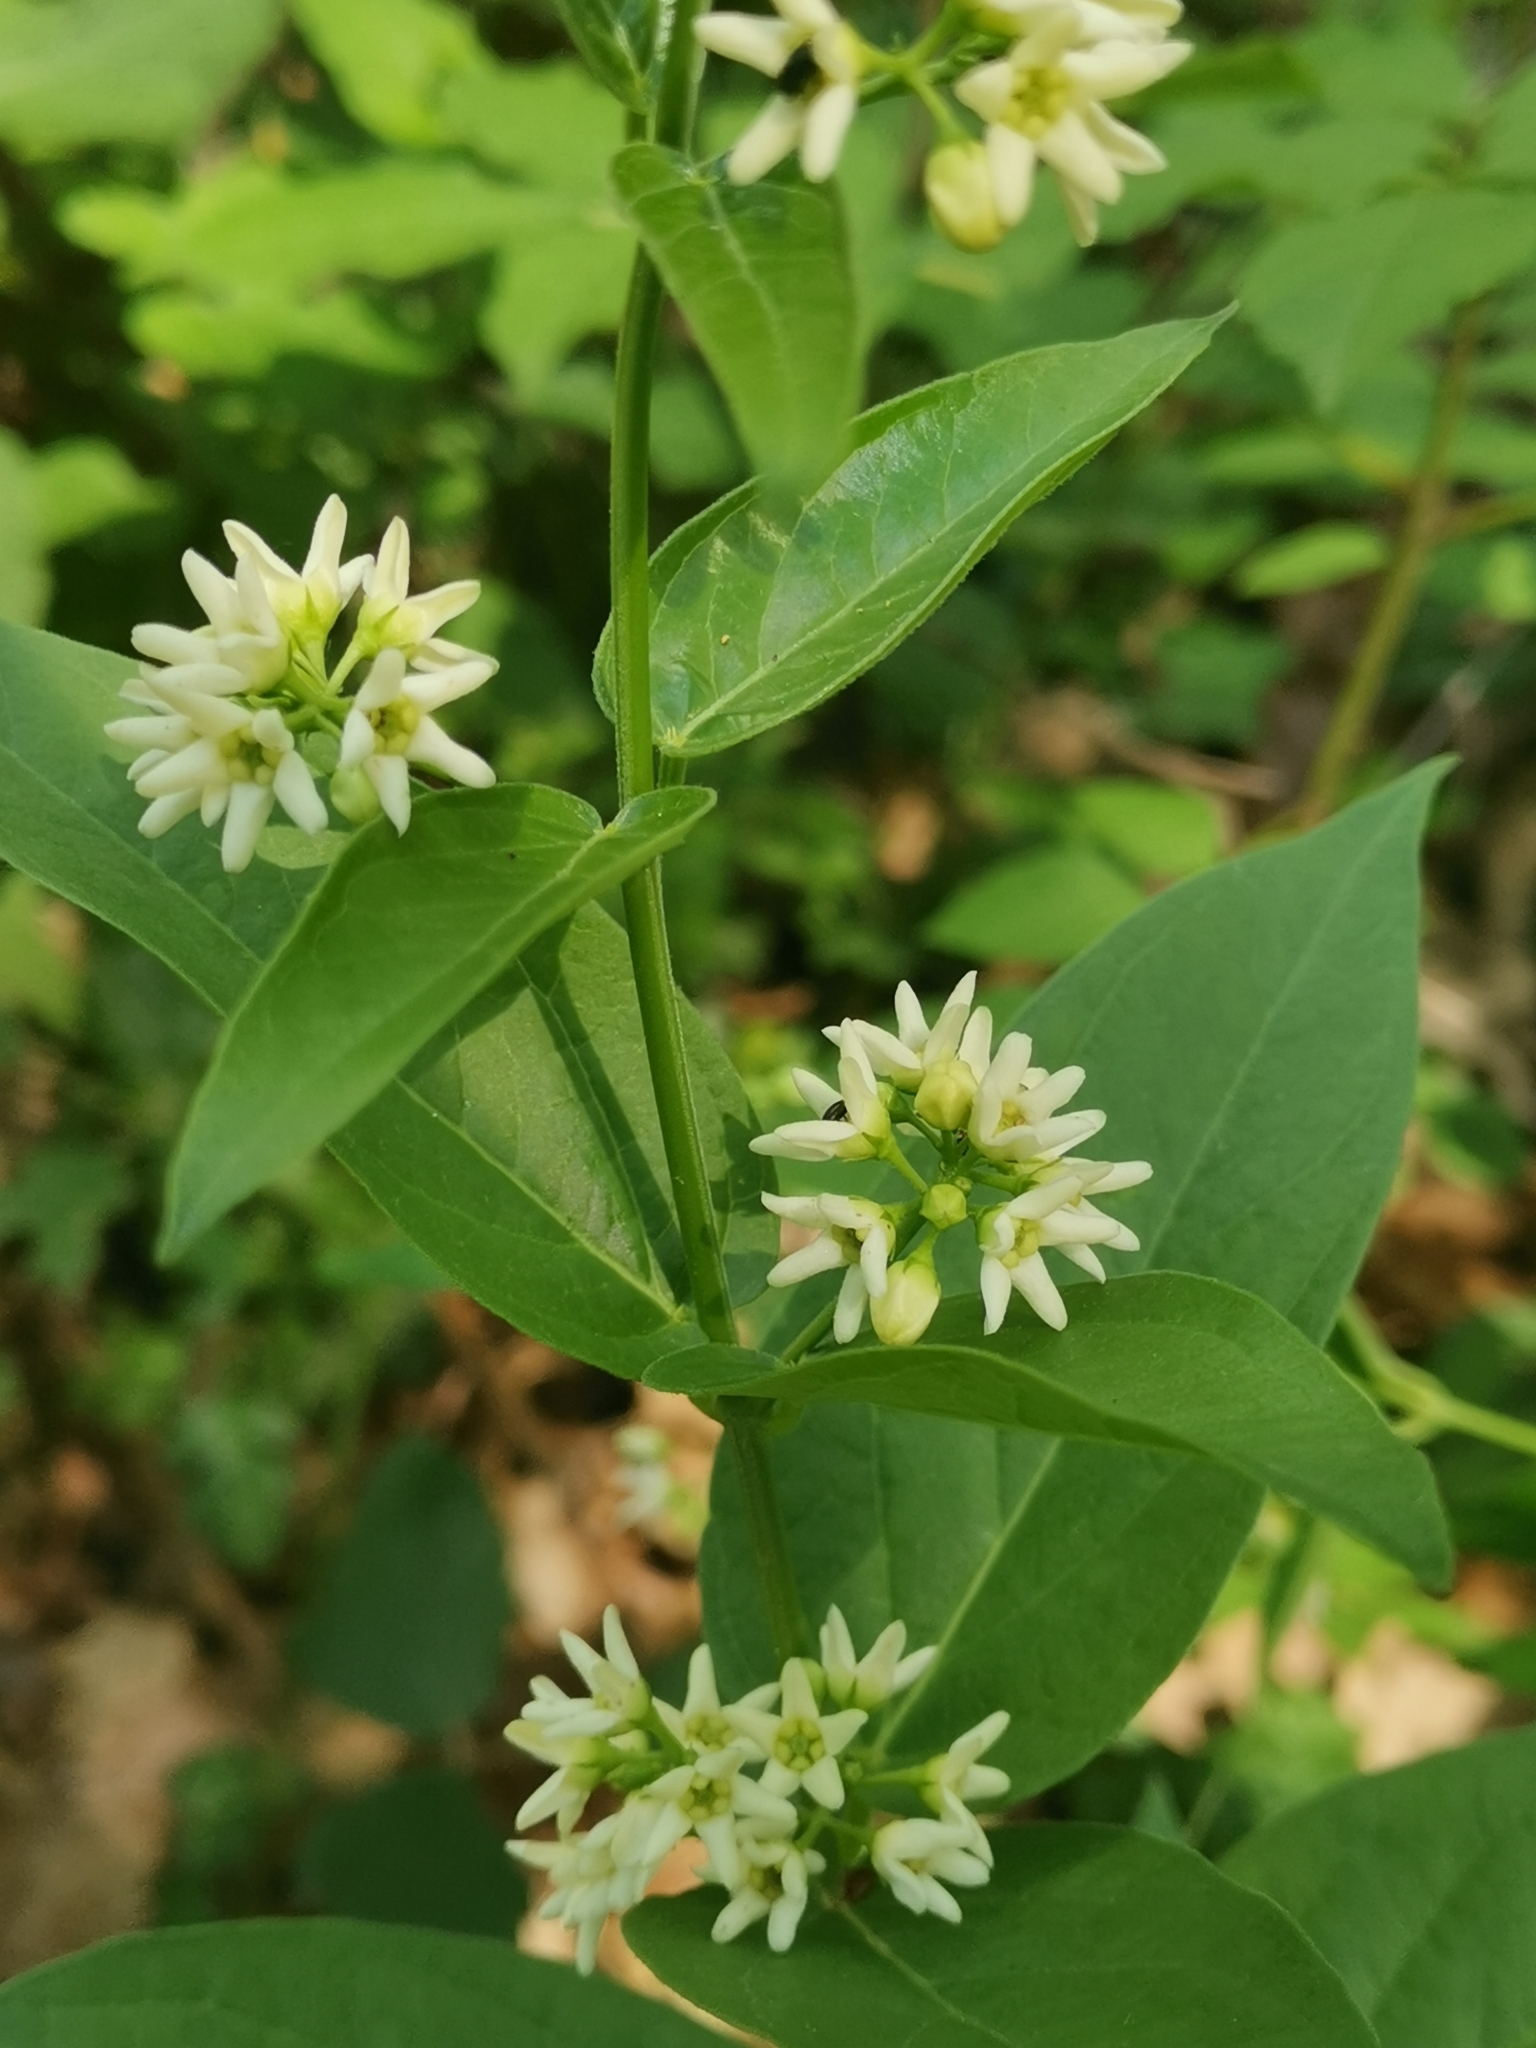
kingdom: Plantae
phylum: Tracheophyta
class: Magnoliopsida
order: Gentianales
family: Apocynaceae
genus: Vincetoxicum
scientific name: Vincetoxicum hirundinaria
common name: White swallowwort
